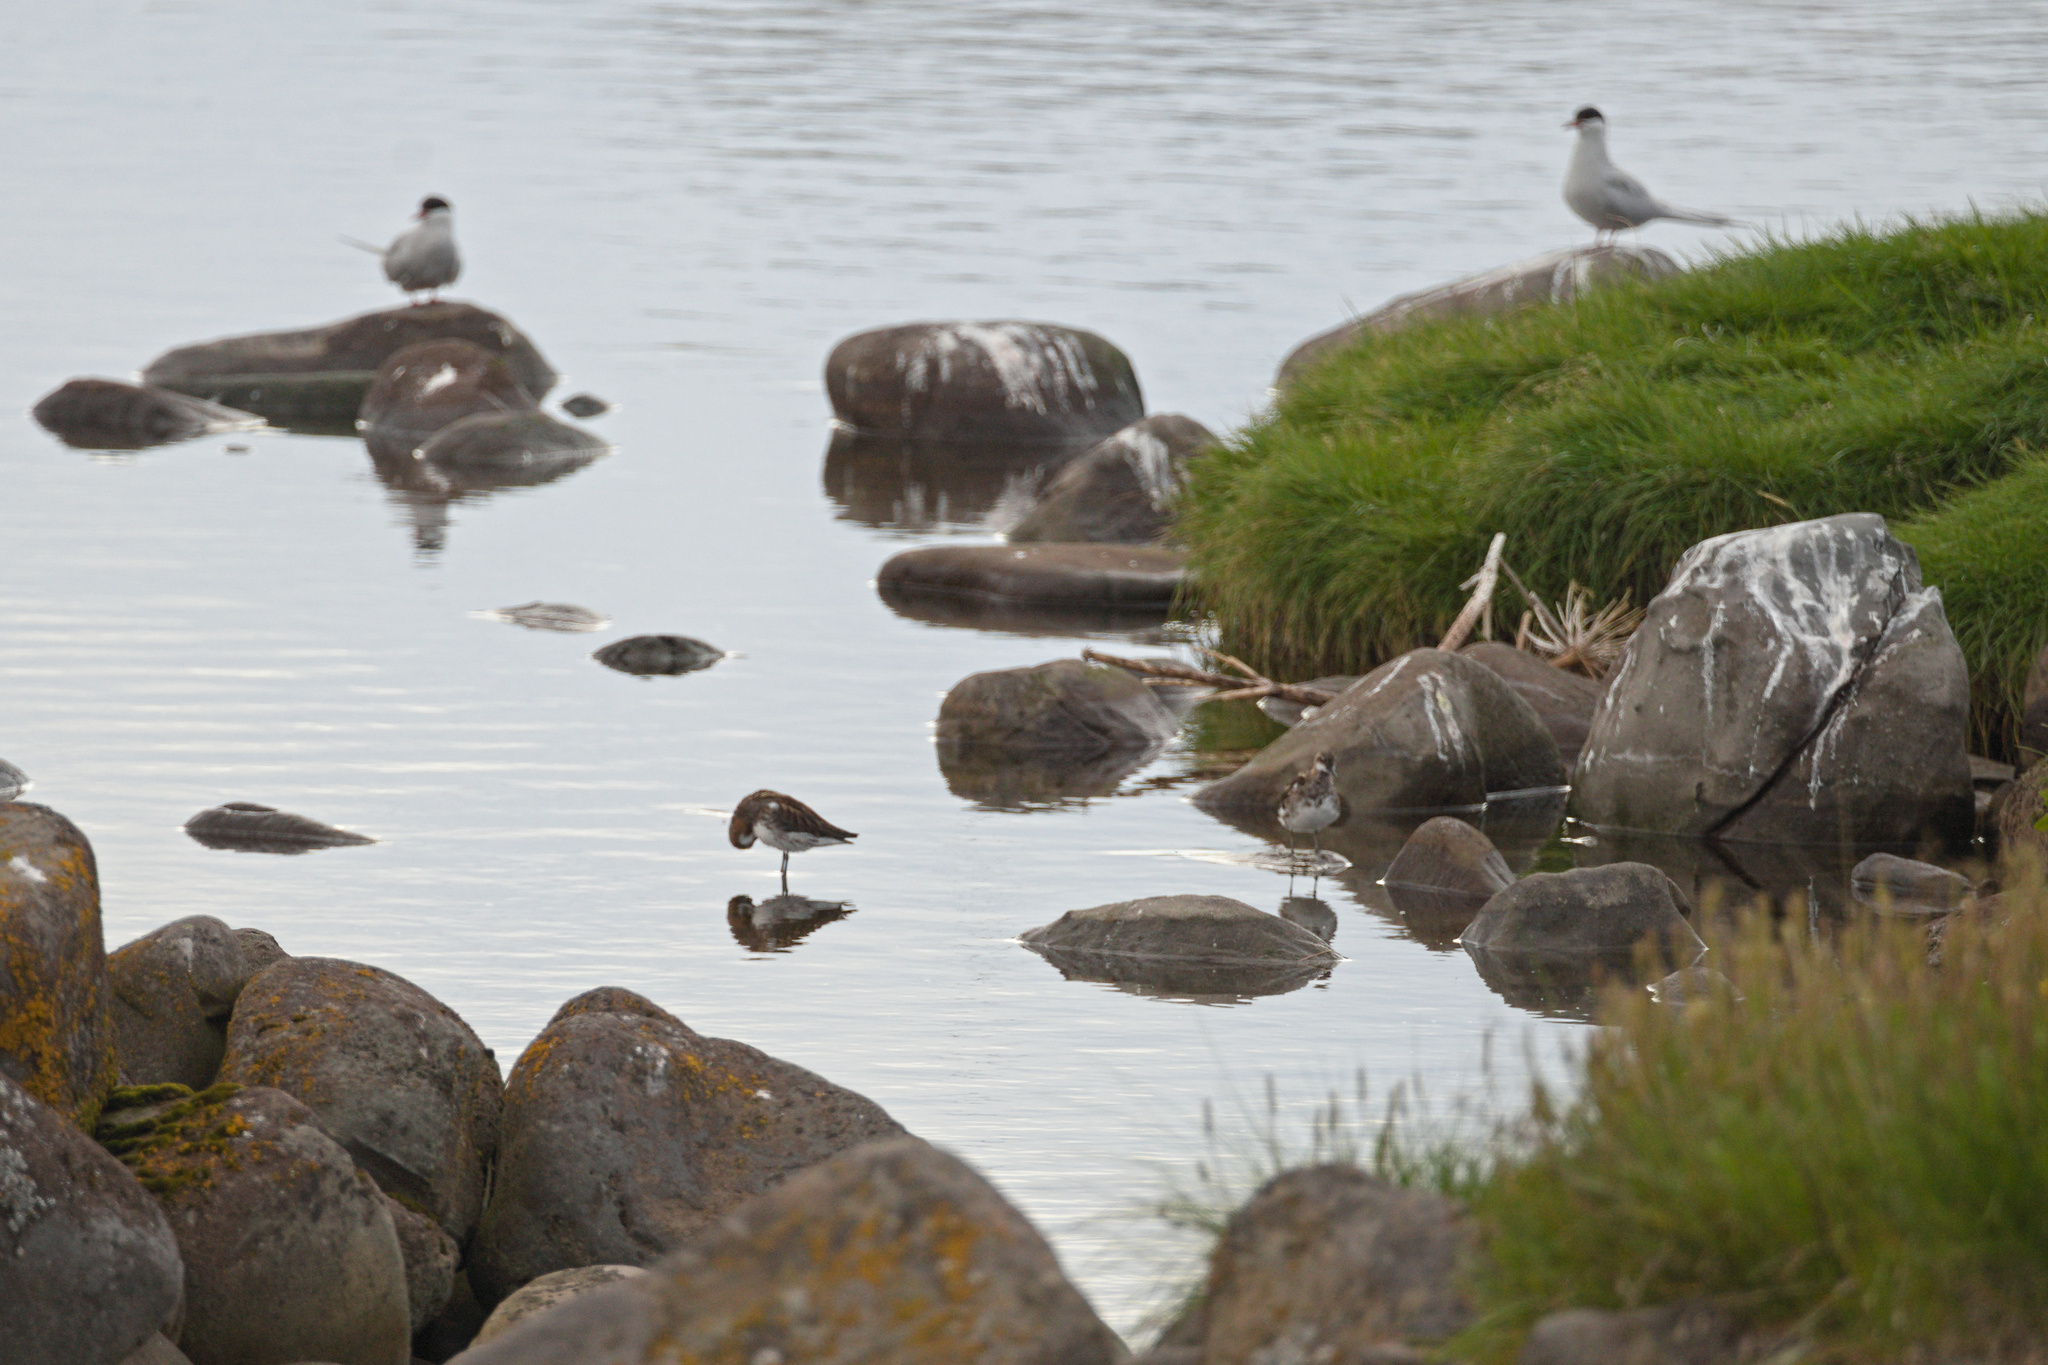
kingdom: Animalia
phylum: Chordata
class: Aves
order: Charadriiformes
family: Laridae
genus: Sterna
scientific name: Sterna paradisaea
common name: Arctic tern
